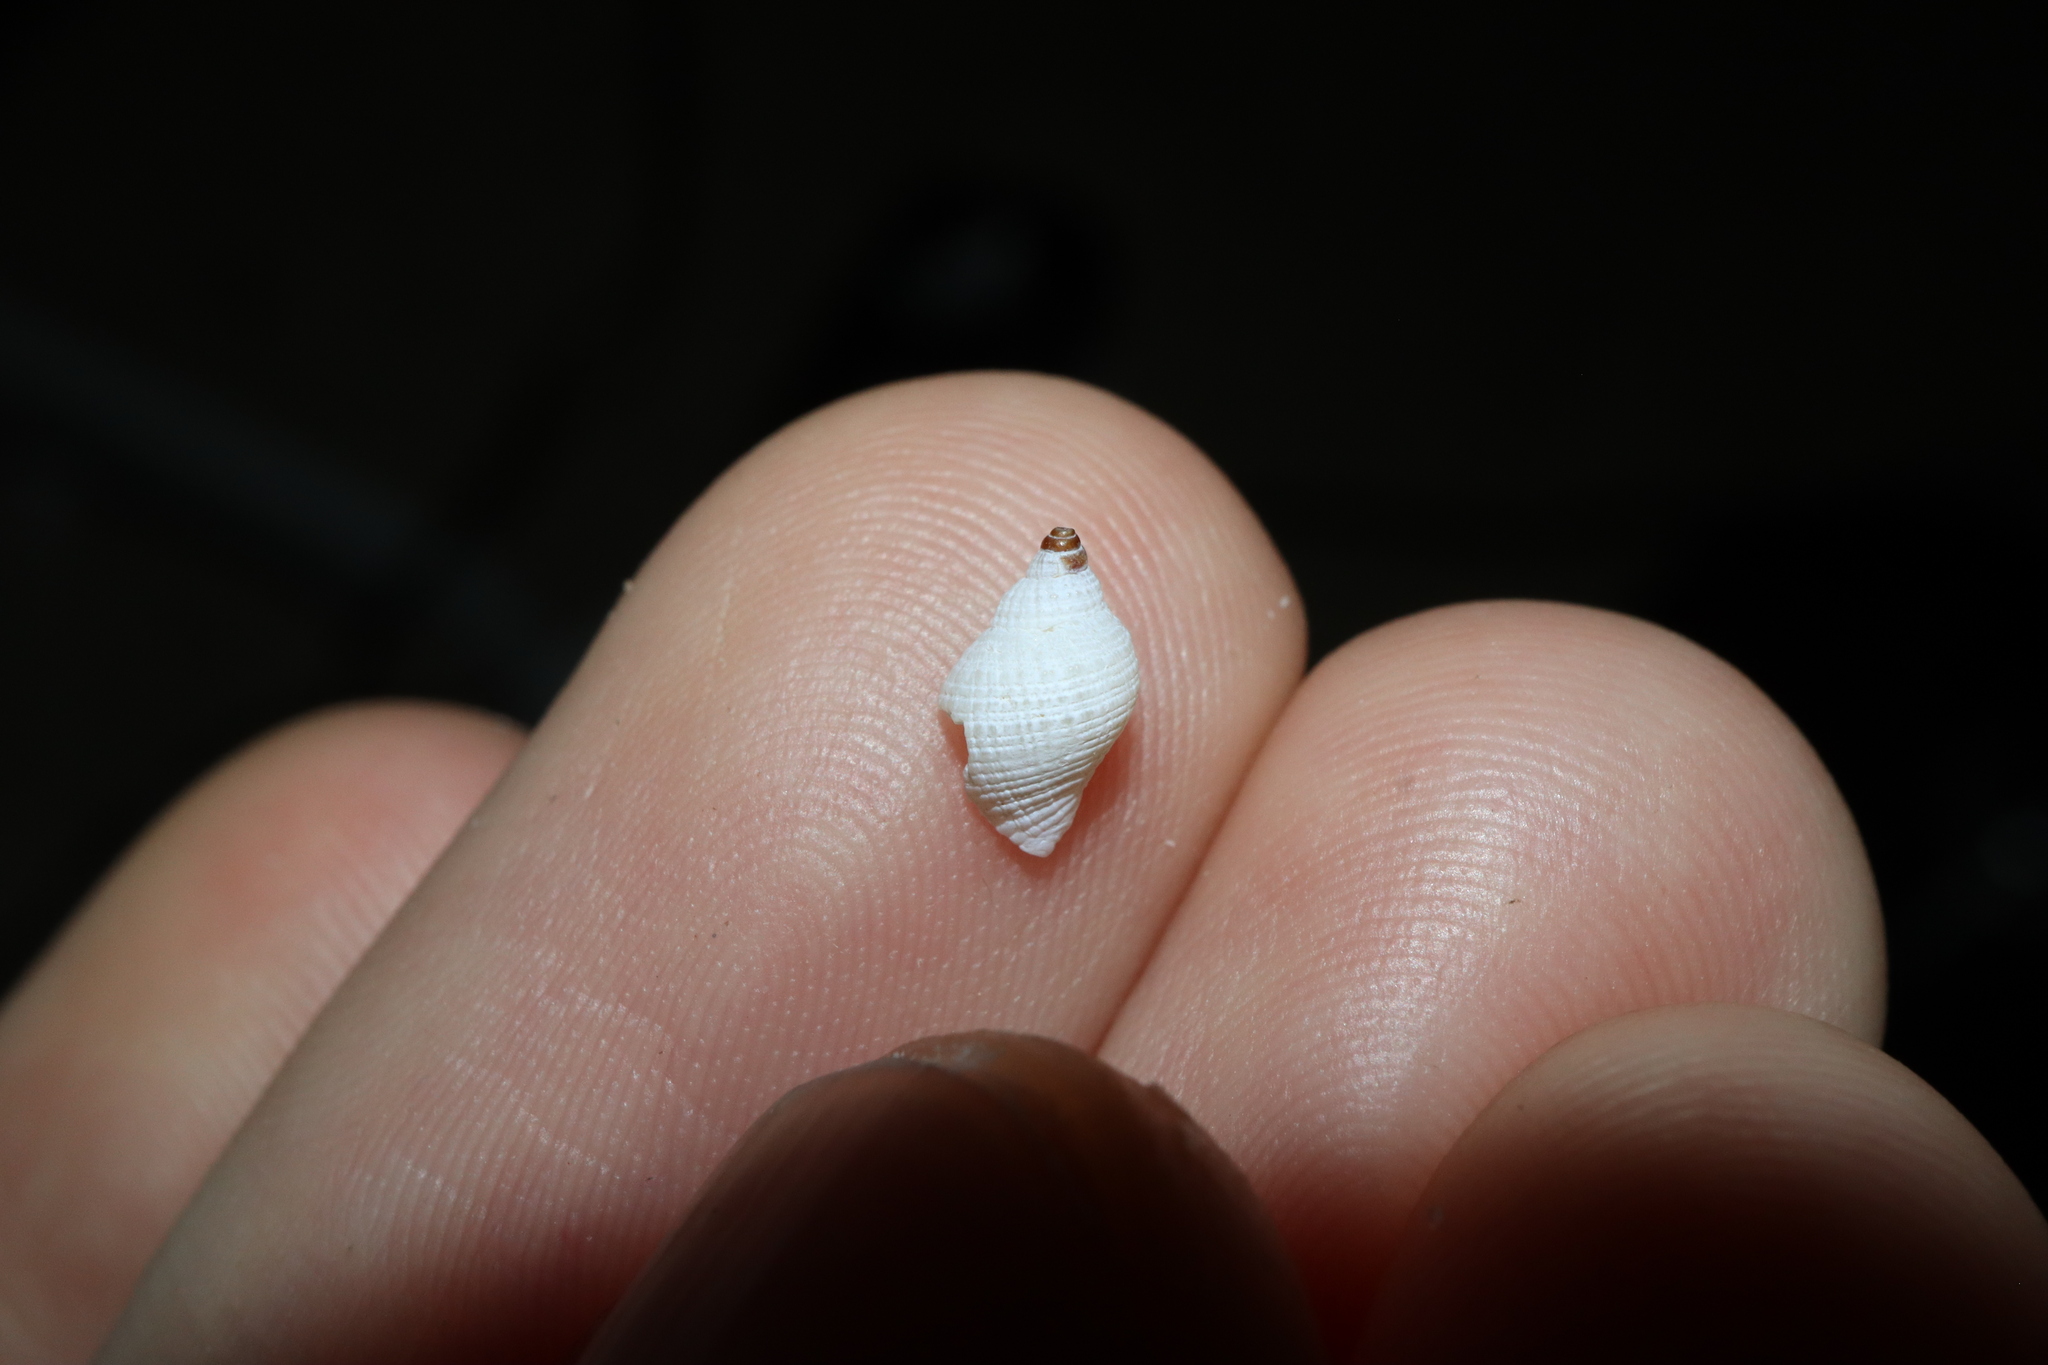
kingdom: Animalia
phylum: Mollusca
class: Gastropoda
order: Neogastropoda
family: Muricidae
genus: Dicathais
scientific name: Dicathais orbita
